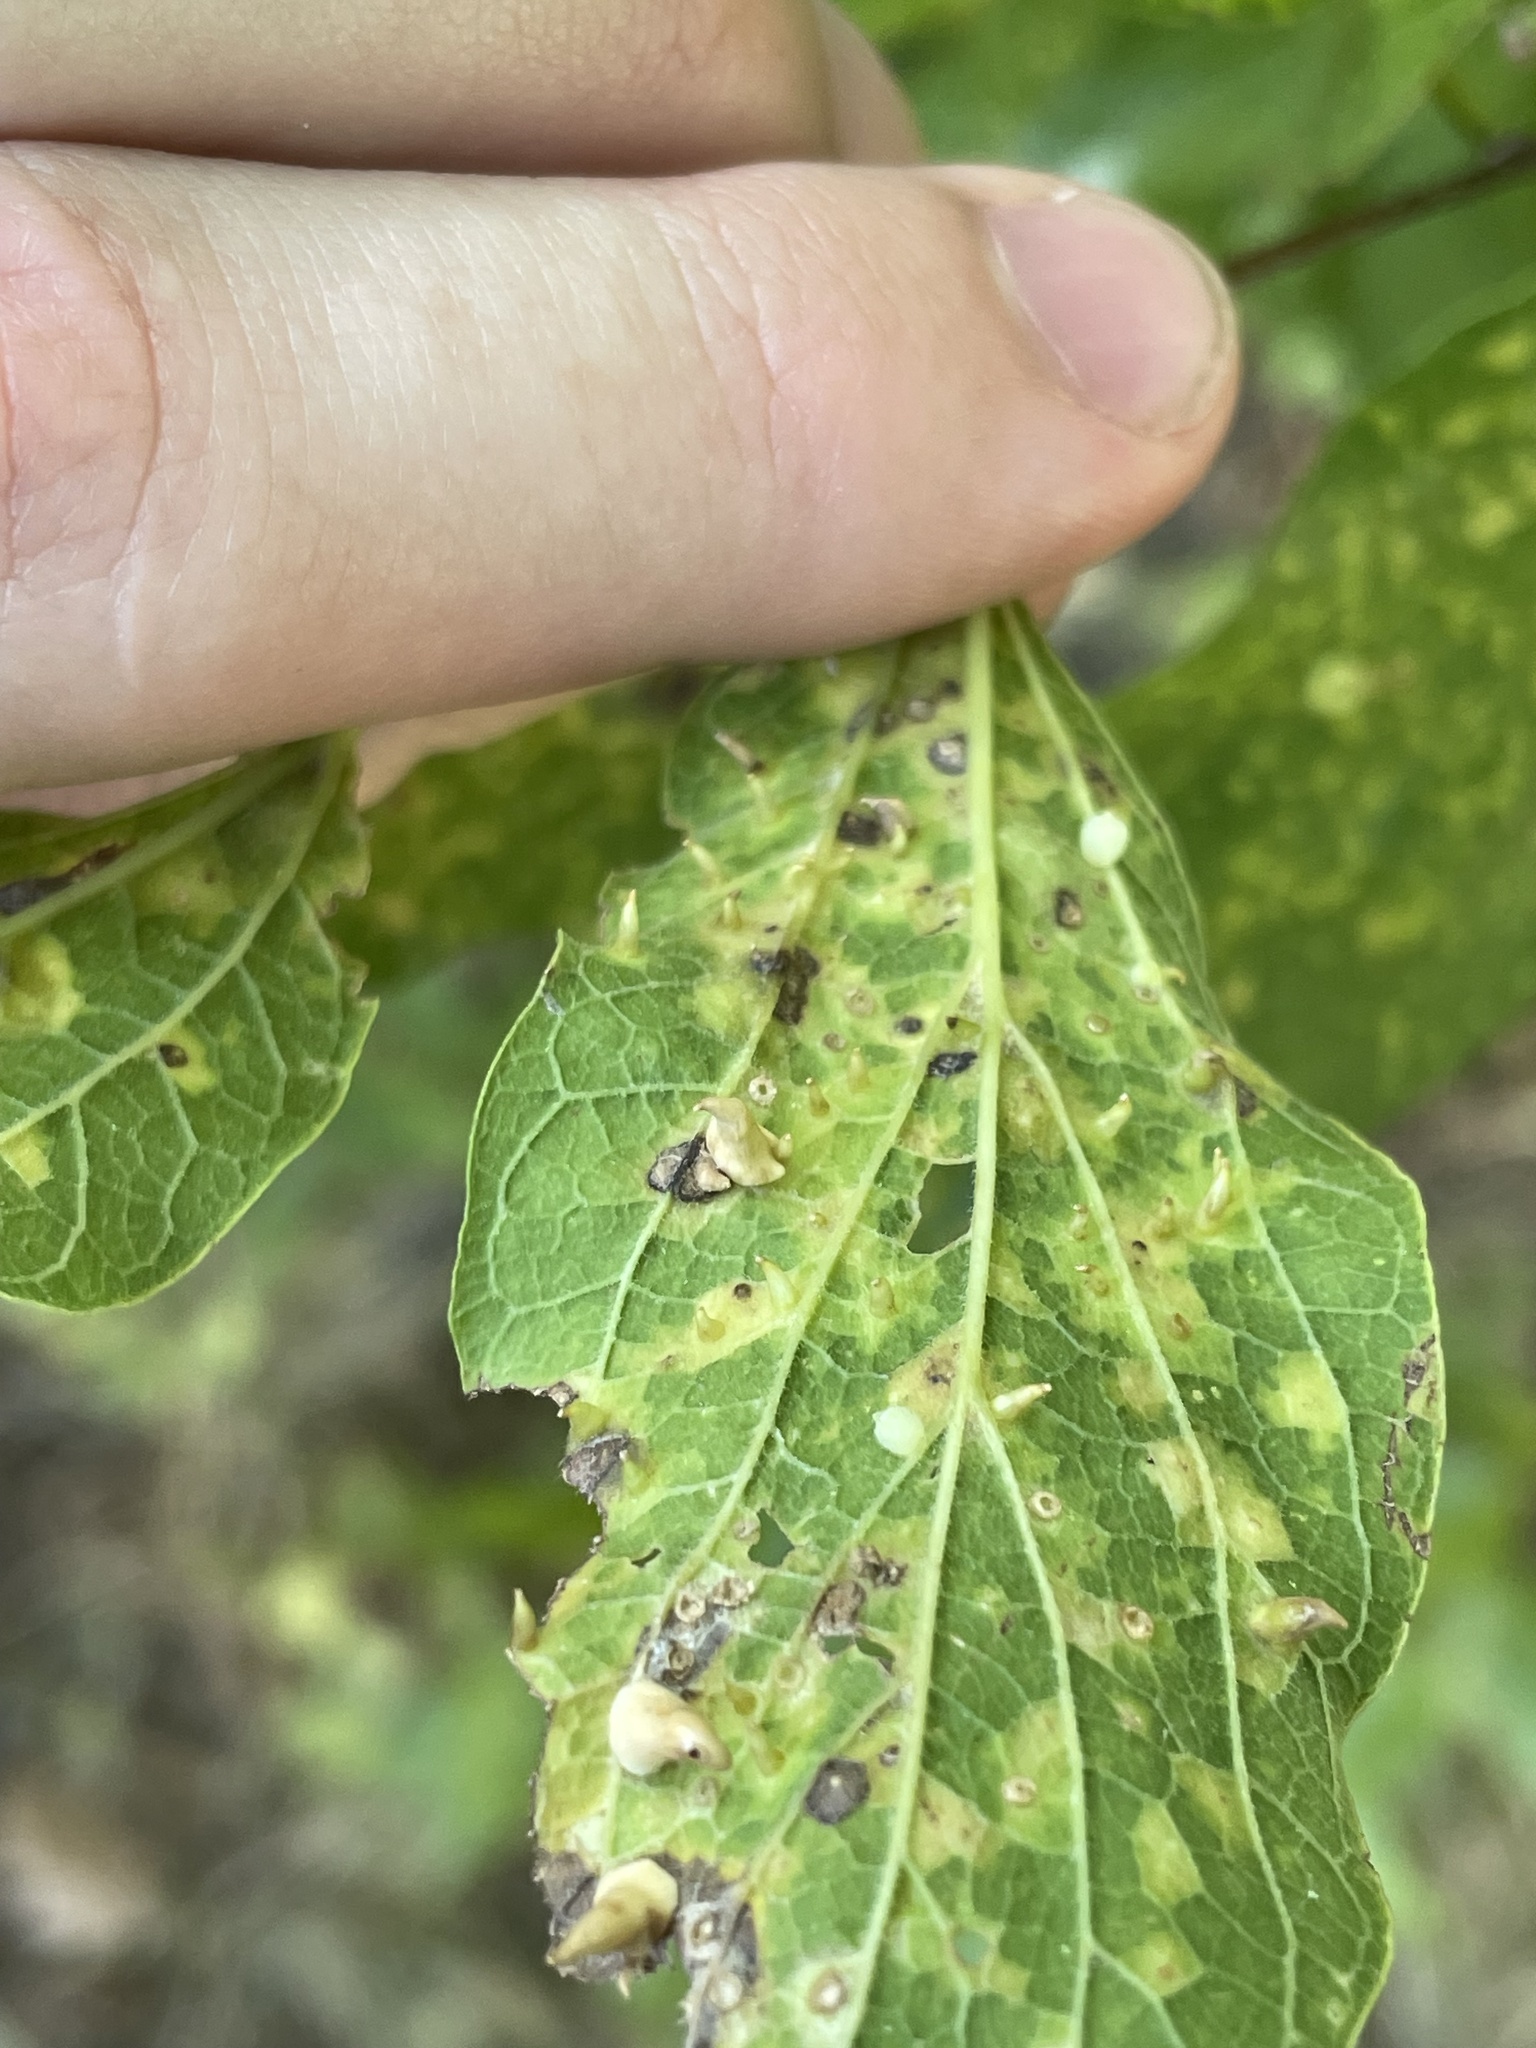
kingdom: Animalia
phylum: Arthropoda
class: Insecta
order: Diptera
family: Cecidomyiidae
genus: Celticecis
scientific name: Celticecis spiniformis
